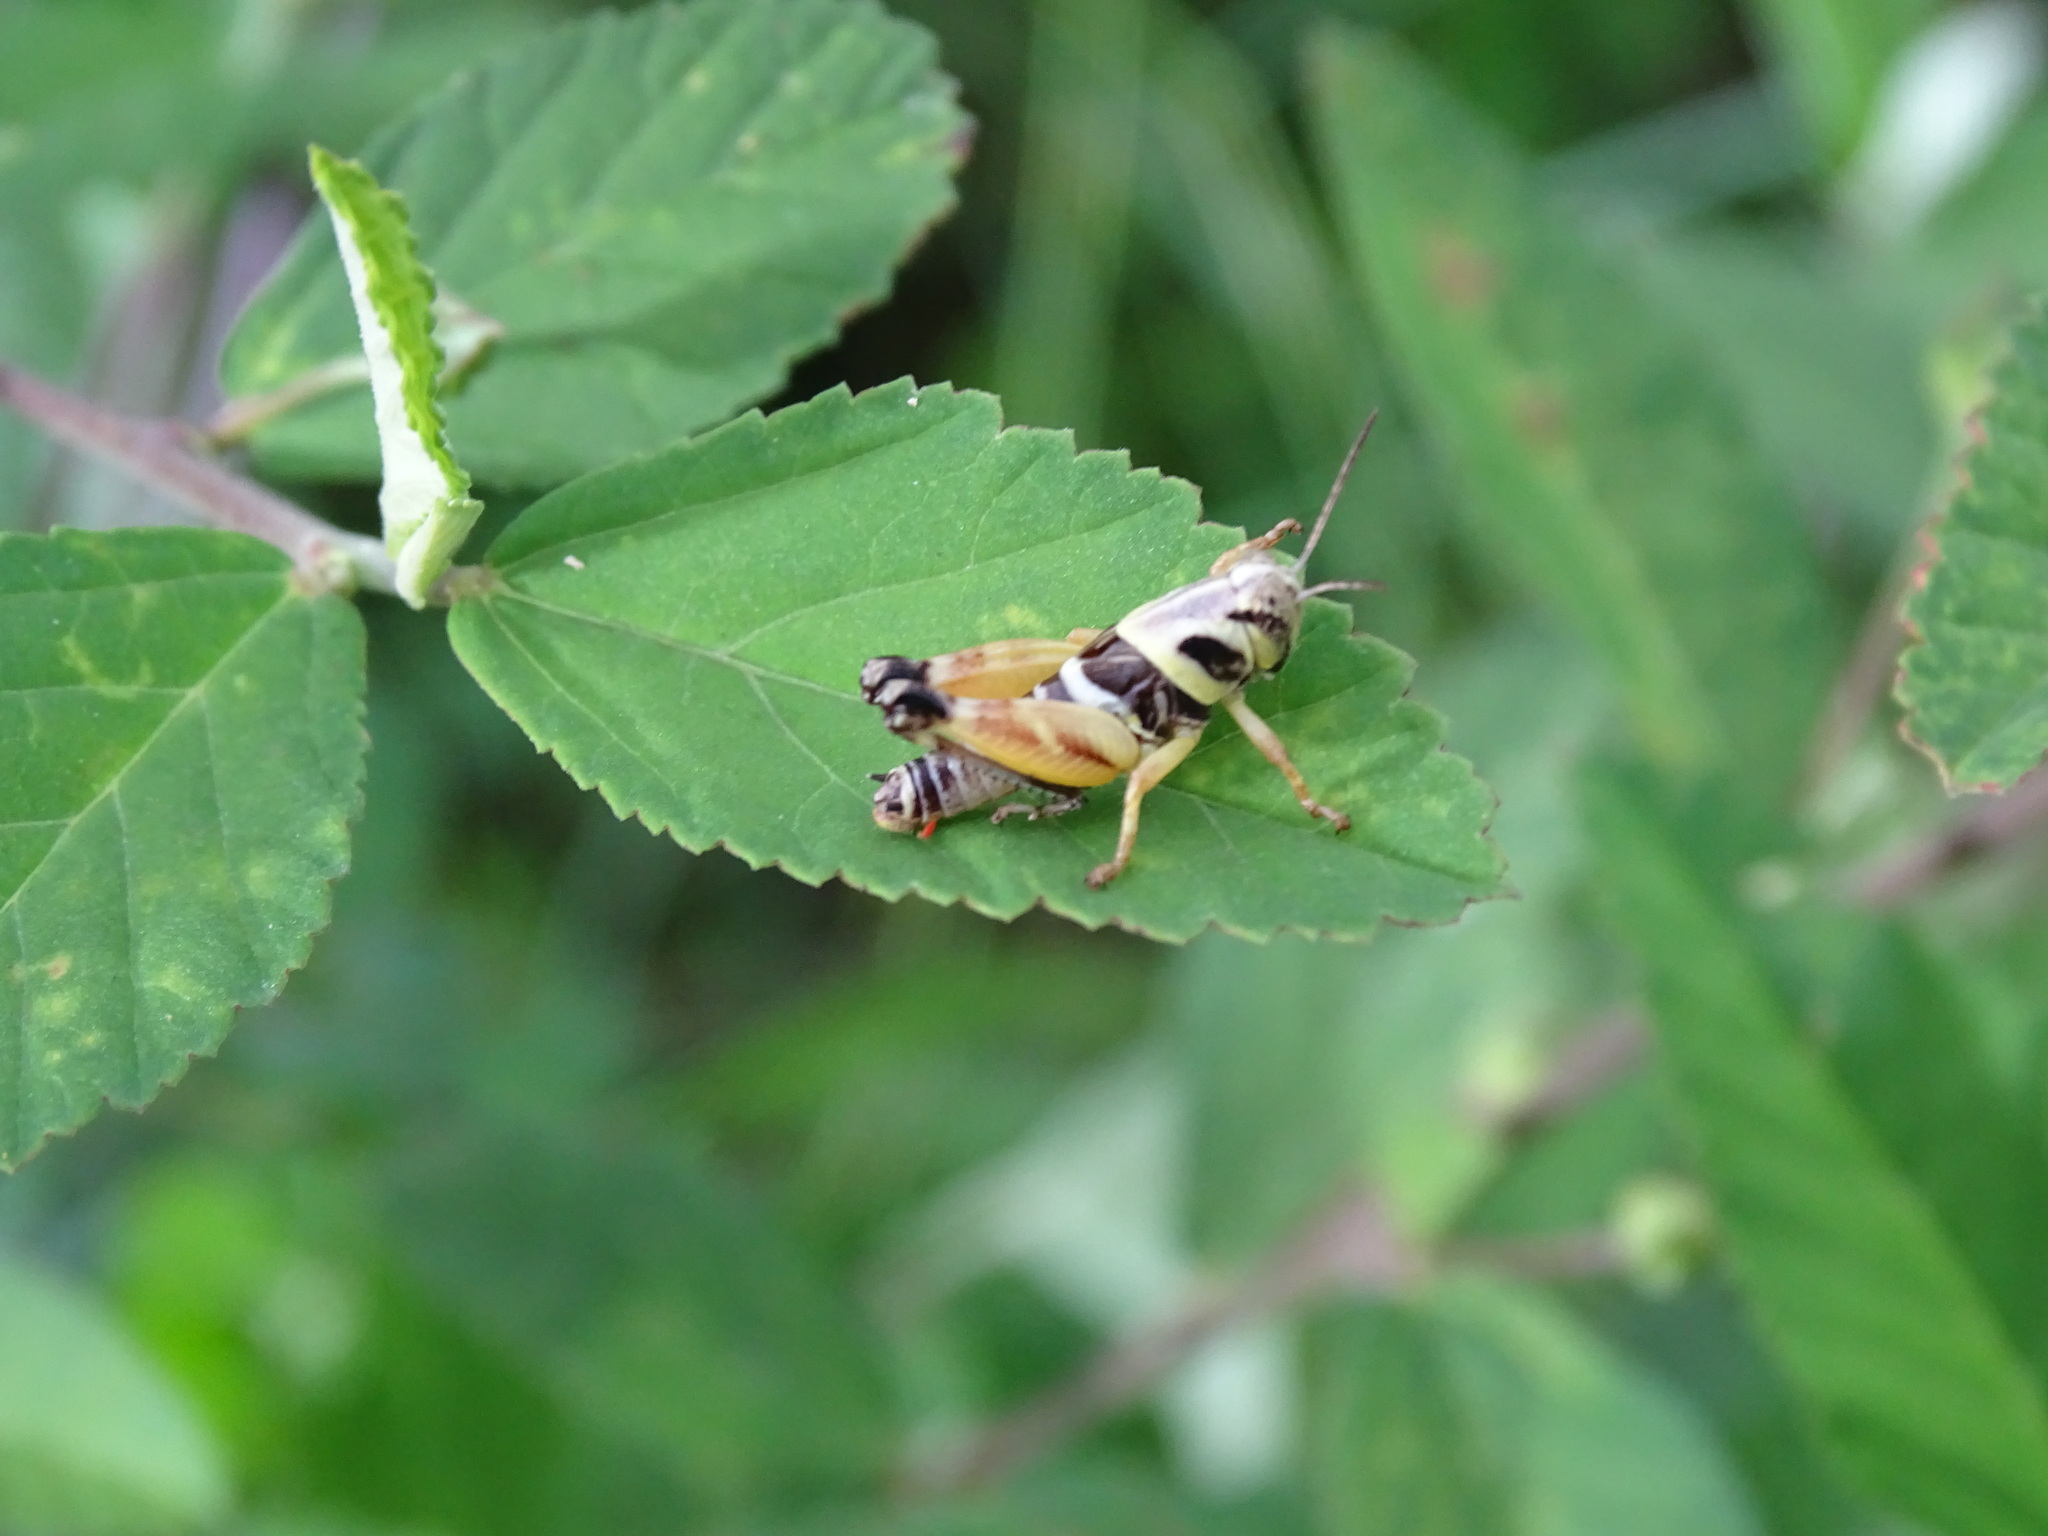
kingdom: Animalia
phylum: Arthropoda
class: Insecta
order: Orthoptera
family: Acrididae
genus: Aidemona
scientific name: Aidemona azteca
